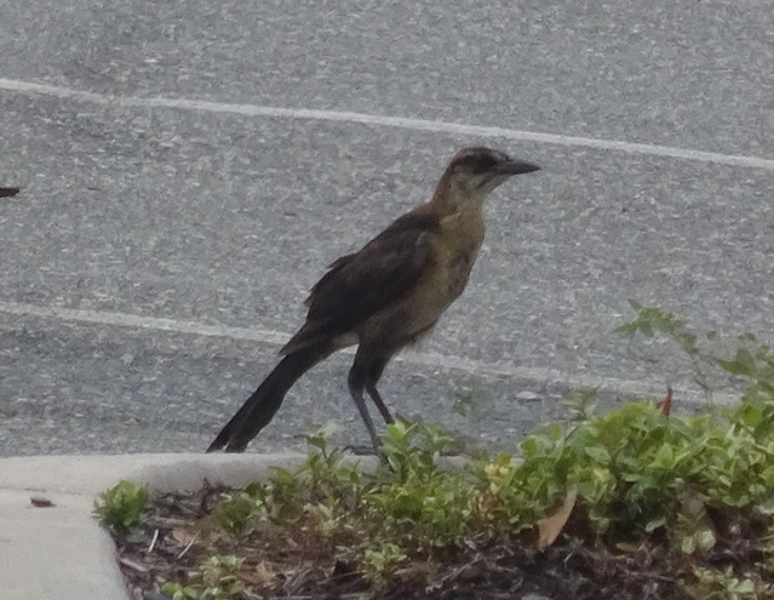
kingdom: Animalia
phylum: Chordata
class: Aves
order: Passeriformes
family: Icteridae
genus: Quiscalus
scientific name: Quiscalus major
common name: Boat-tailed grackle
